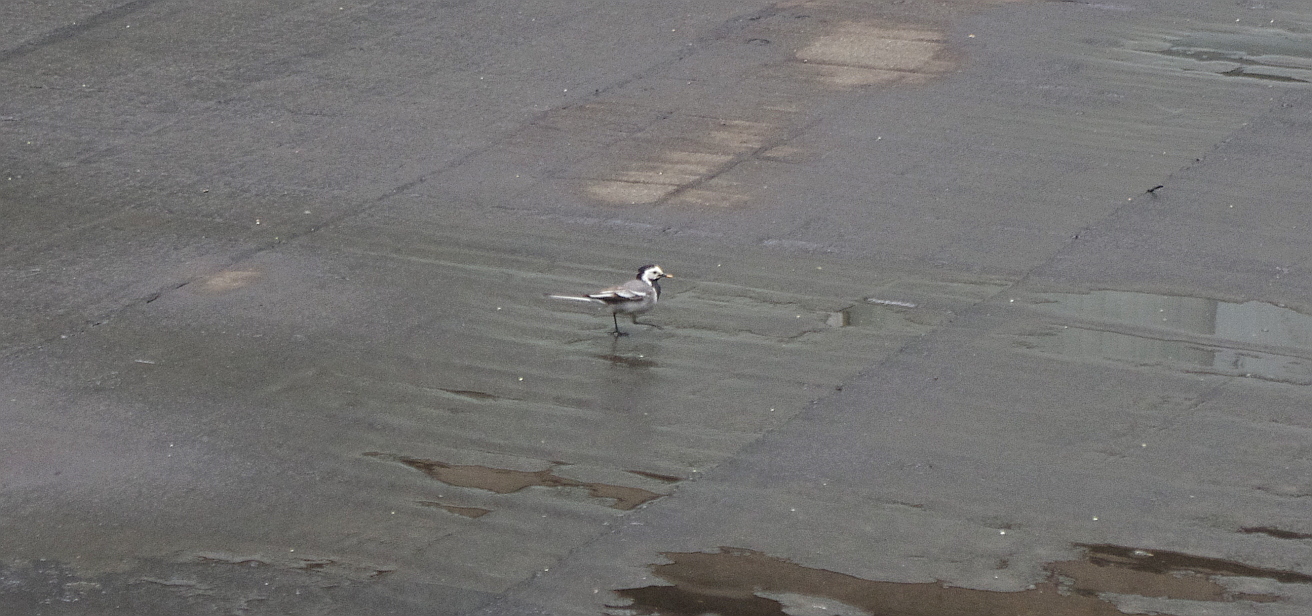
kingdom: Animalia
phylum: Chordata
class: Aves
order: Passeriformes
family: Motacillidae
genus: Motacilla
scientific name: Motacilla alba
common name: White wagtail
